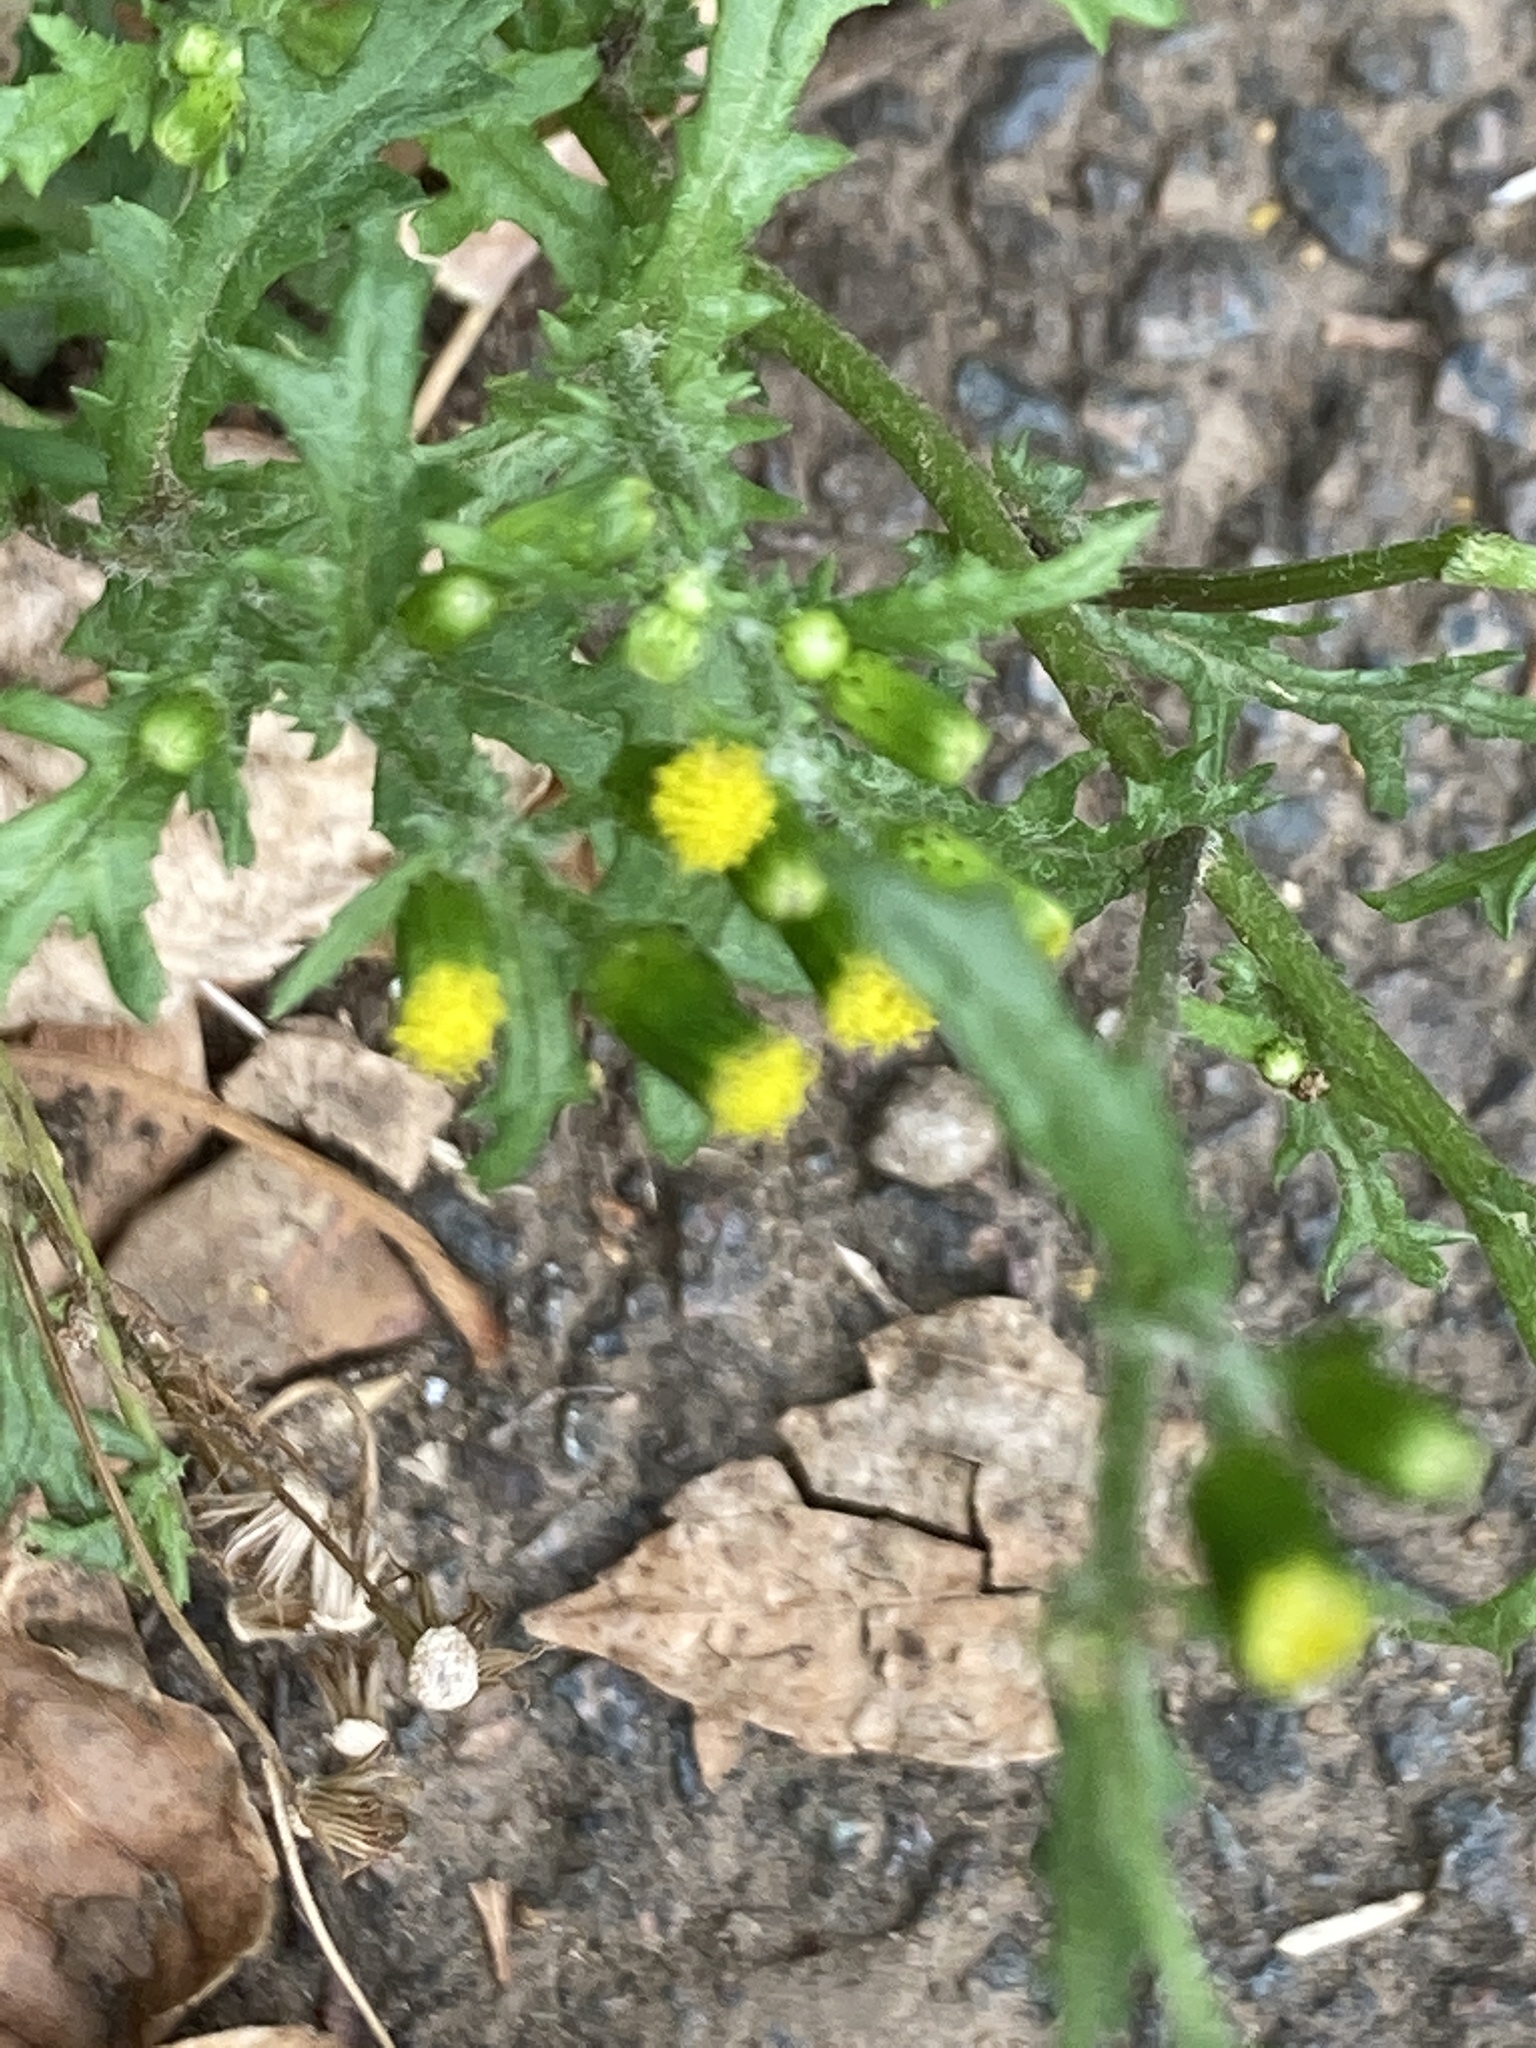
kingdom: Plantae
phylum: Tracheophyta
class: Magnoliopsida
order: Asterales
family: Asteraceae
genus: Senecio
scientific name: Senecio vulgaris
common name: Old-man-in-the-spring
